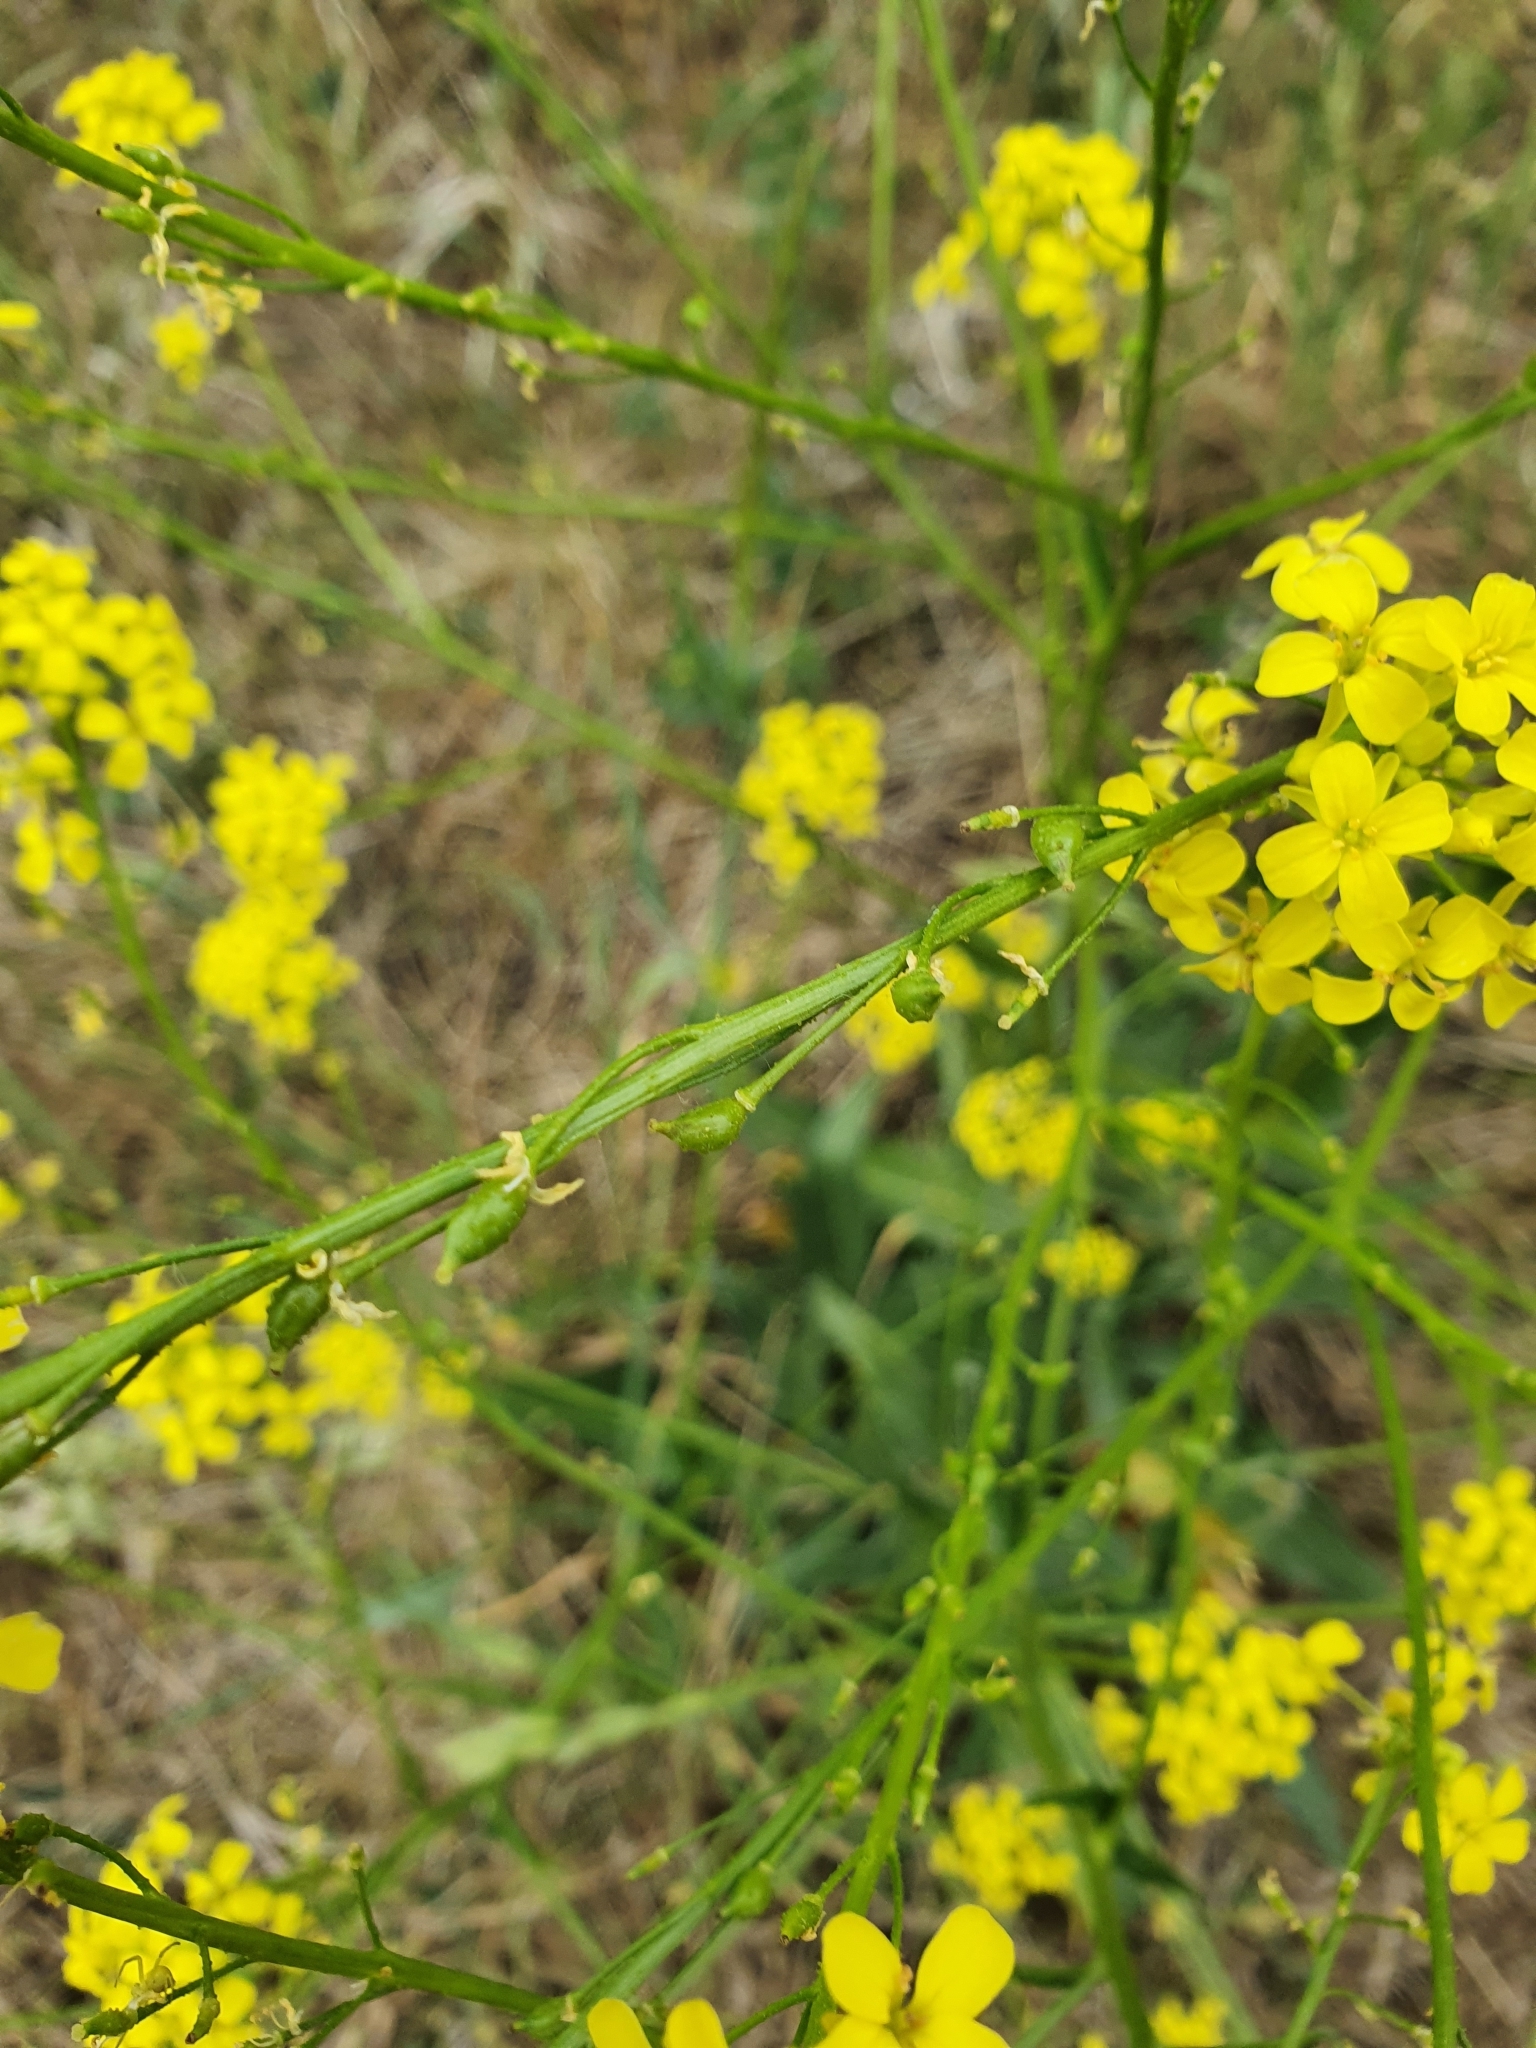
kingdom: Plantae
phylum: Tracheophyta
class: Magnoliopsida
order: Brassicales
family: Brassicaceae
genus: Bunias
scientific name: Bunias orientalis
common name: Warty-cabbage
